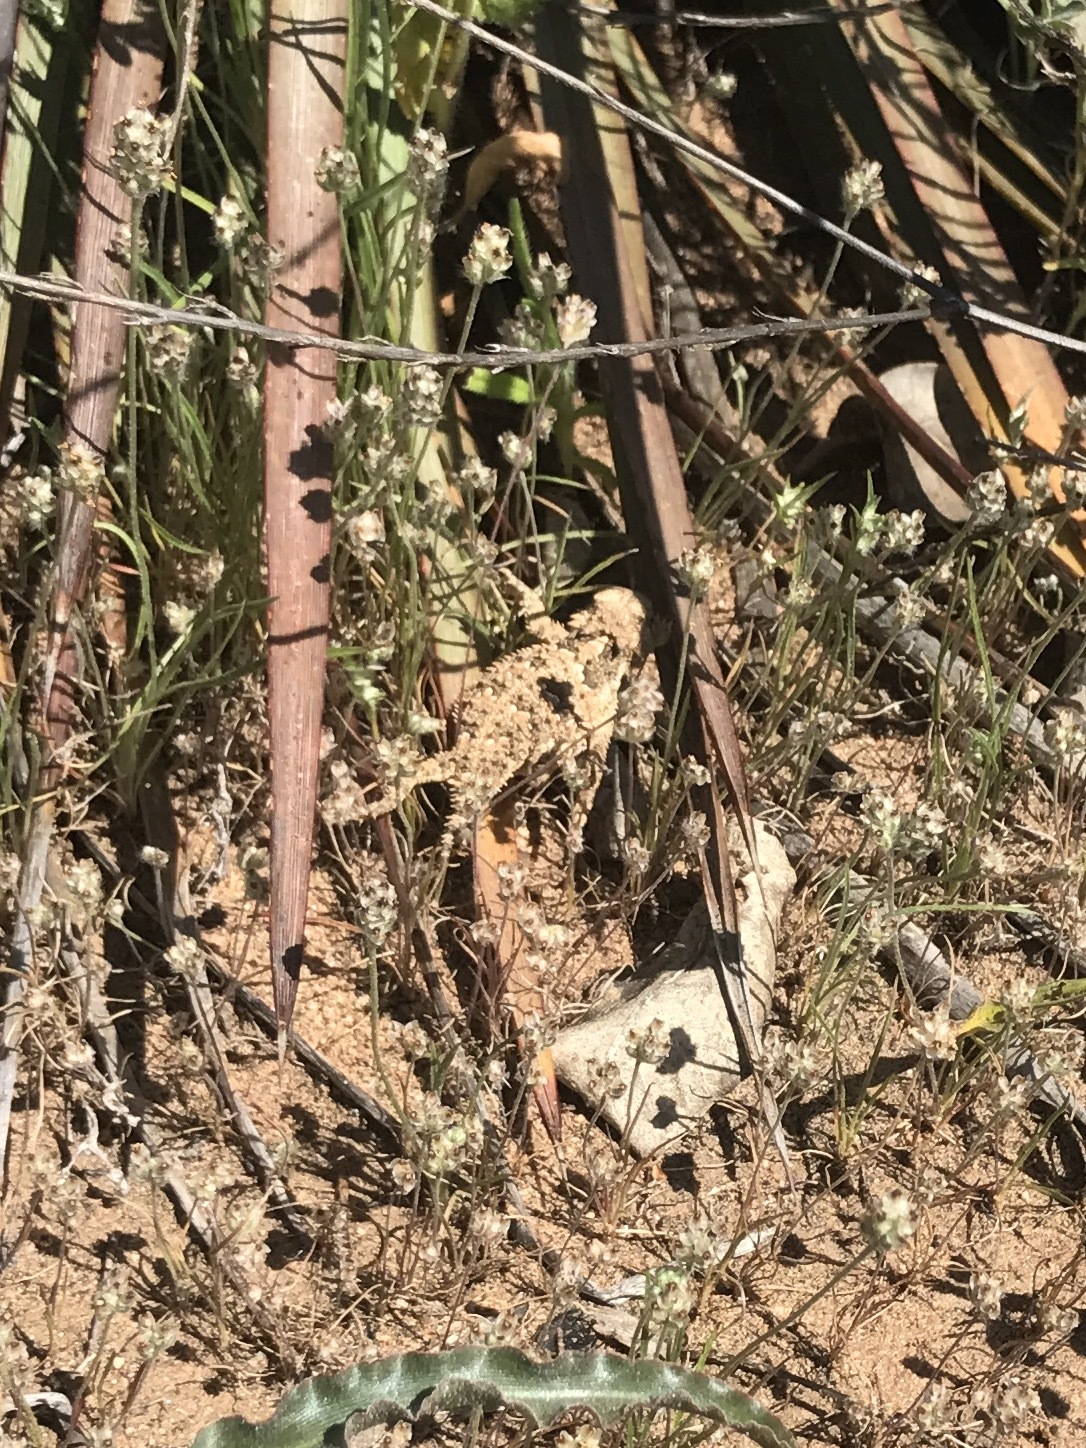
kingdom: Animalia
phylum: Chordata
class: Squamata
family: Phrynosomatidae
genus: Phrynosoma
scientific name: Phrynosoma blainvillii
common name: San diego horned lizard
